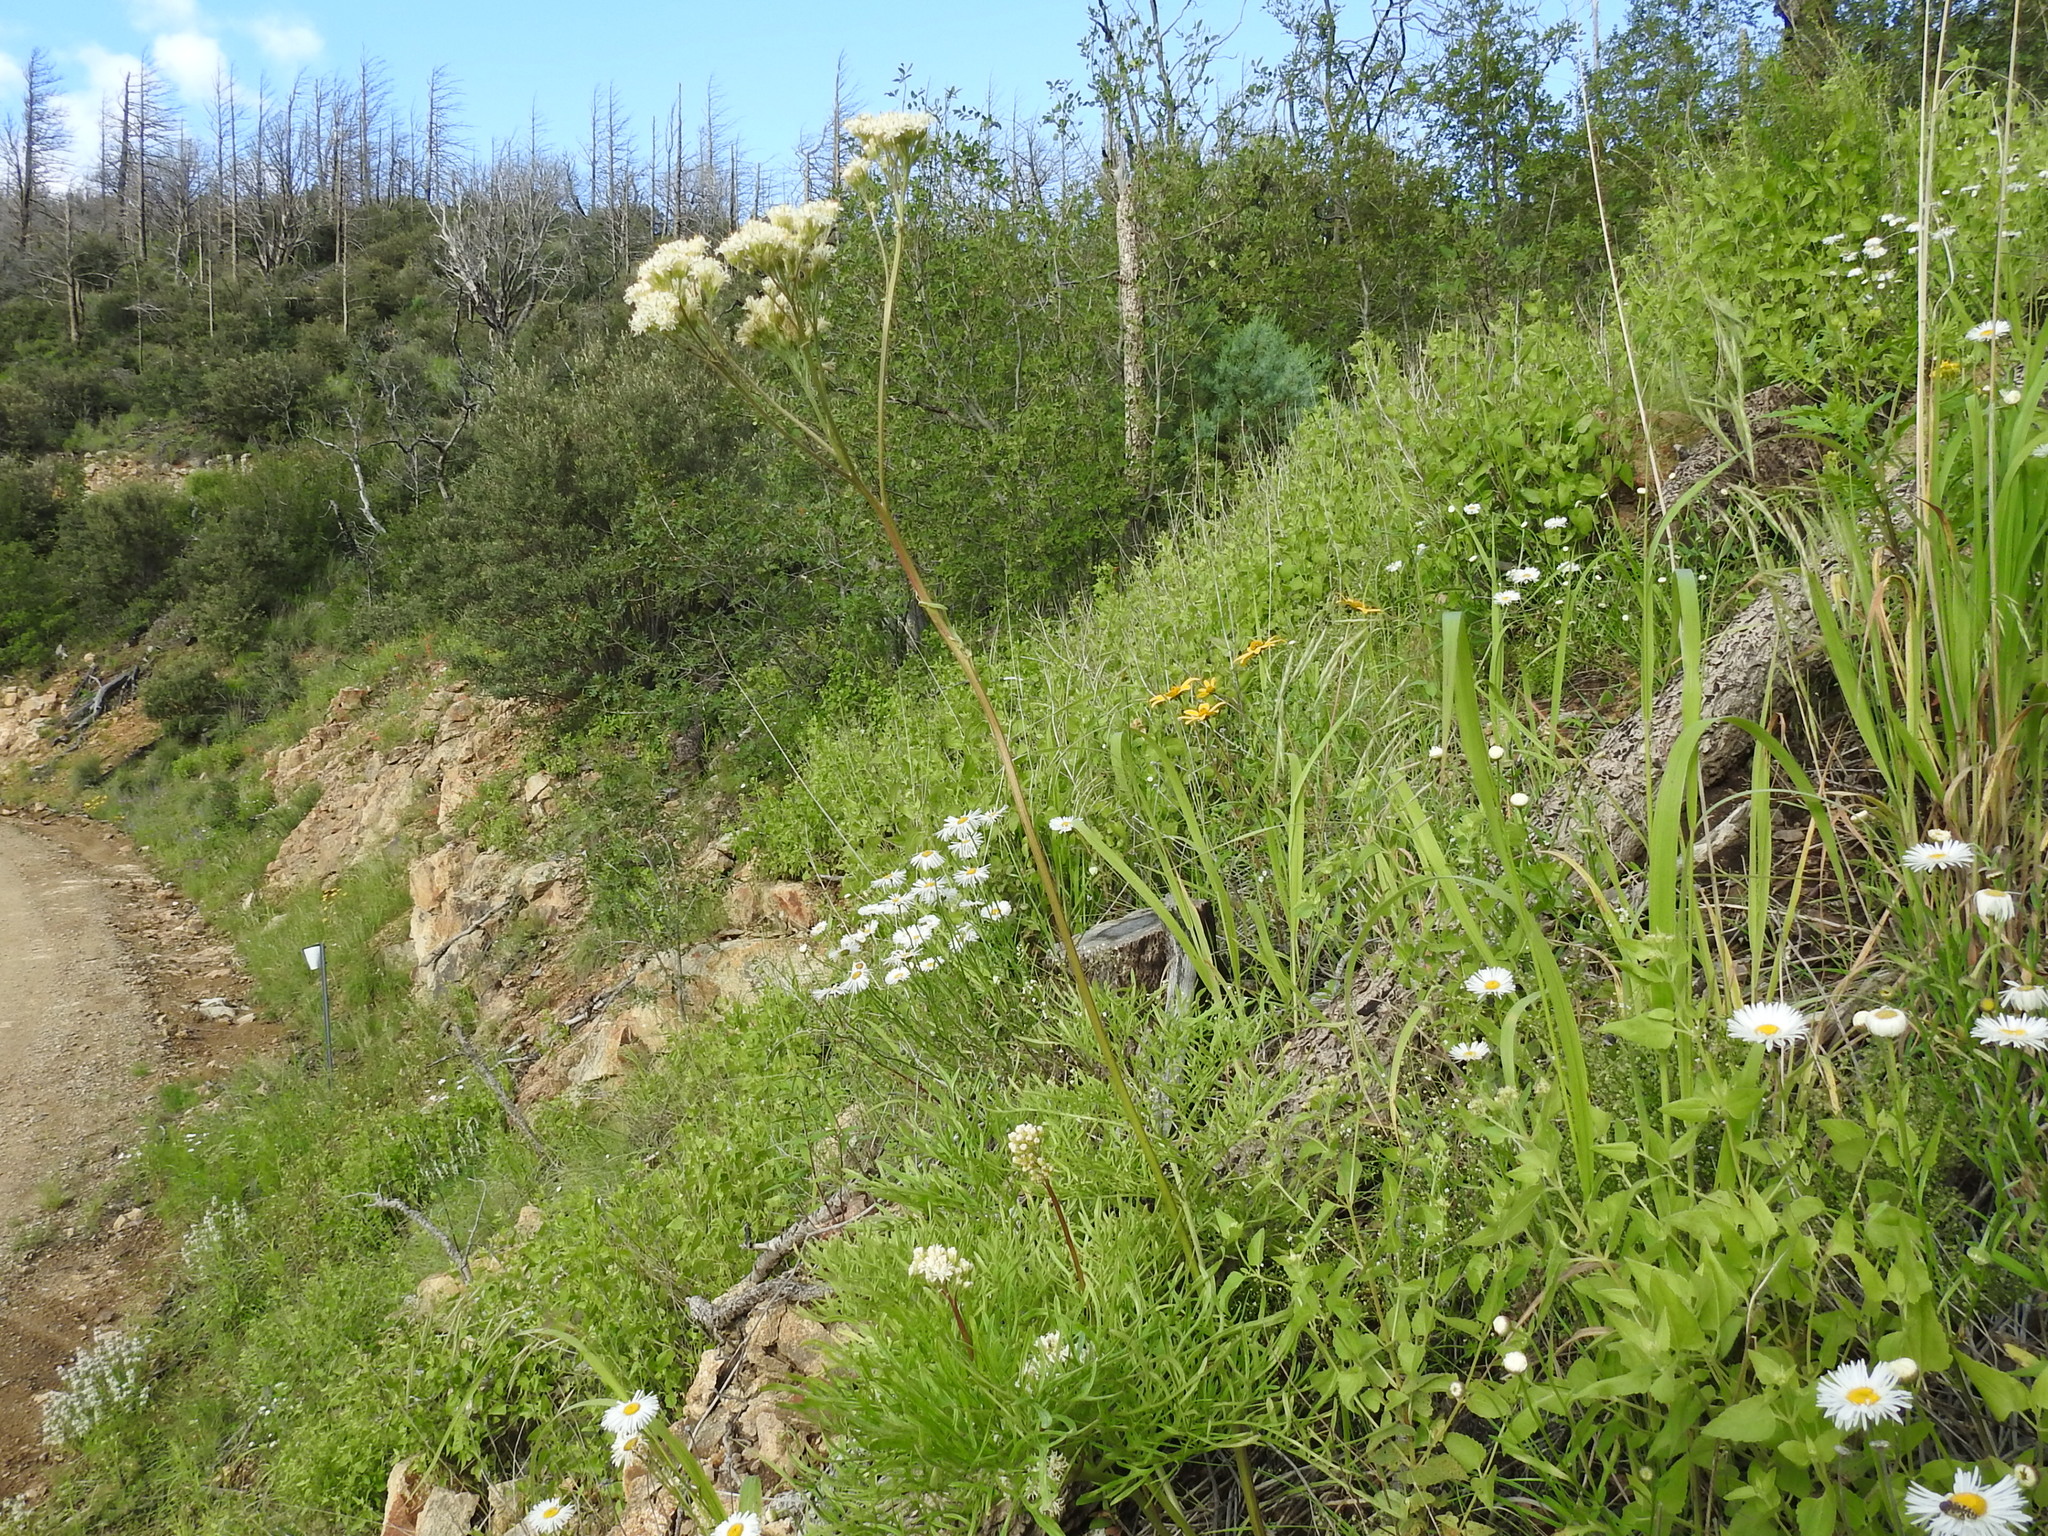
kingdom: Plantae
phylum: Tracheophyta
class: Magnoliopsida
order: Asterales
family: Asteraceae
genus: Psacalium
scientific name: Psacalium decompositum
